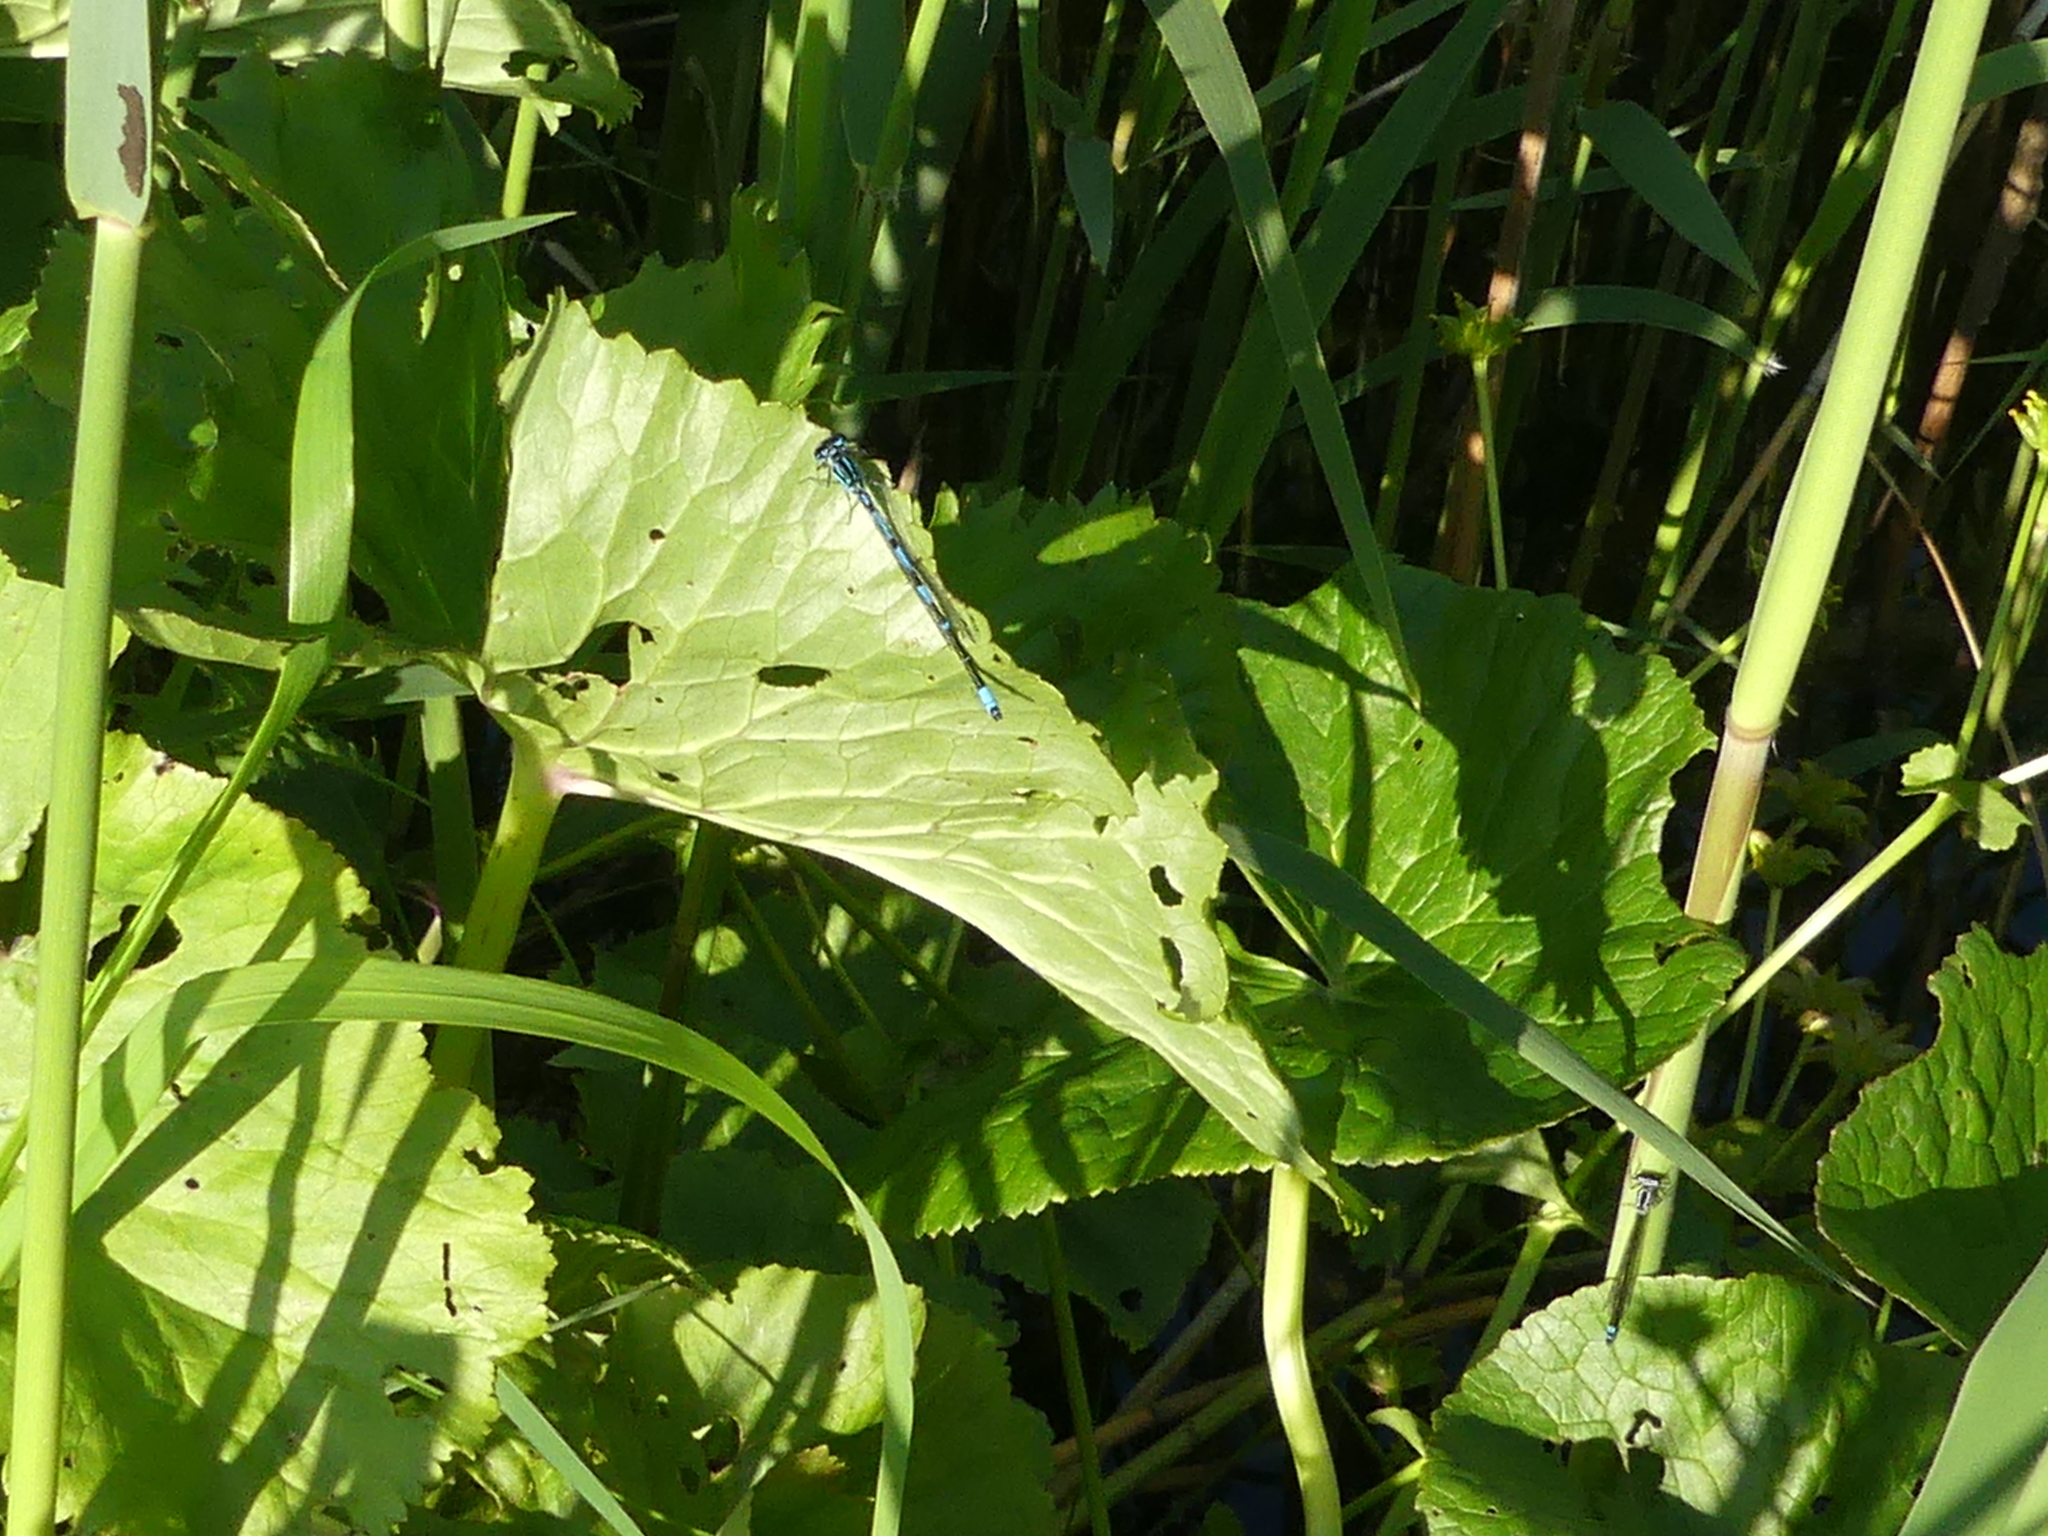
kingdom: Animalia
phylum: Arthropoda
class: Insecta
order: Odonata
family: Coenagrionidae
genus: Coenagrion
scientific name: Coenagrion pulchellum
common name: Variable bluet
